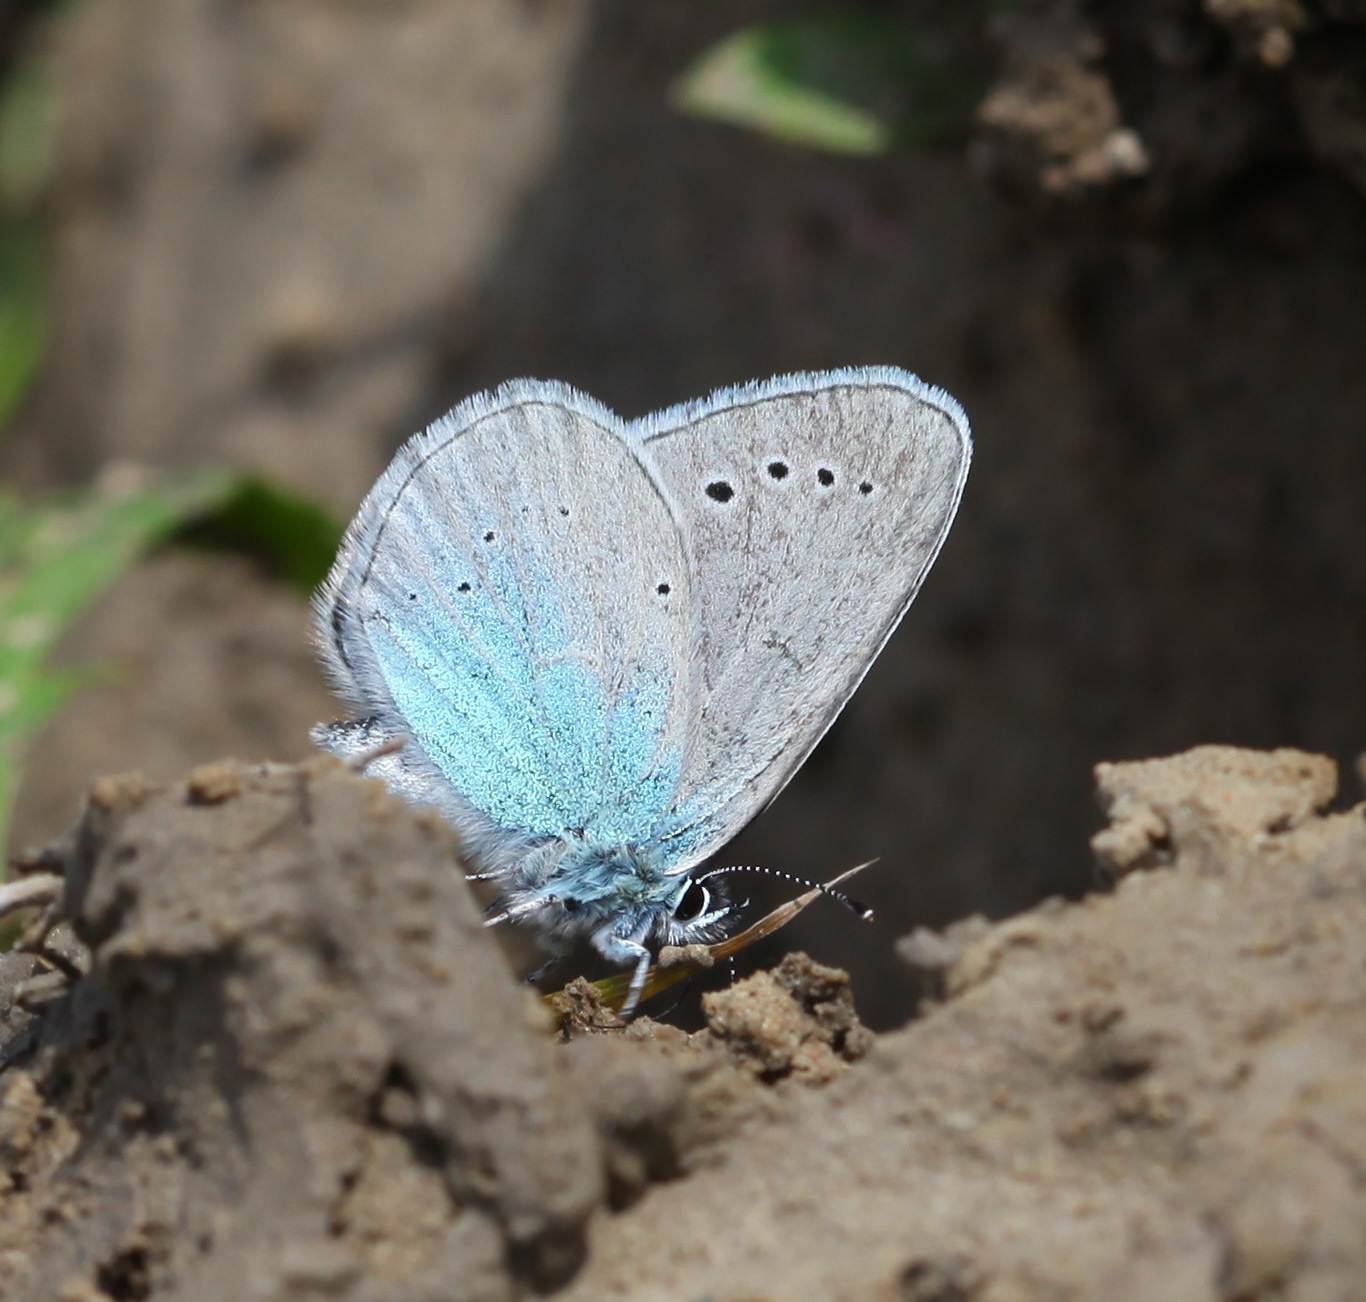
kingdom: Animalia
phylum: Arthropoda
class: Insecta
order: Lepidoptera
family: Lycaenidae
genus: Glaucopsyche
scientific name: Glaucopsyche lycormas
